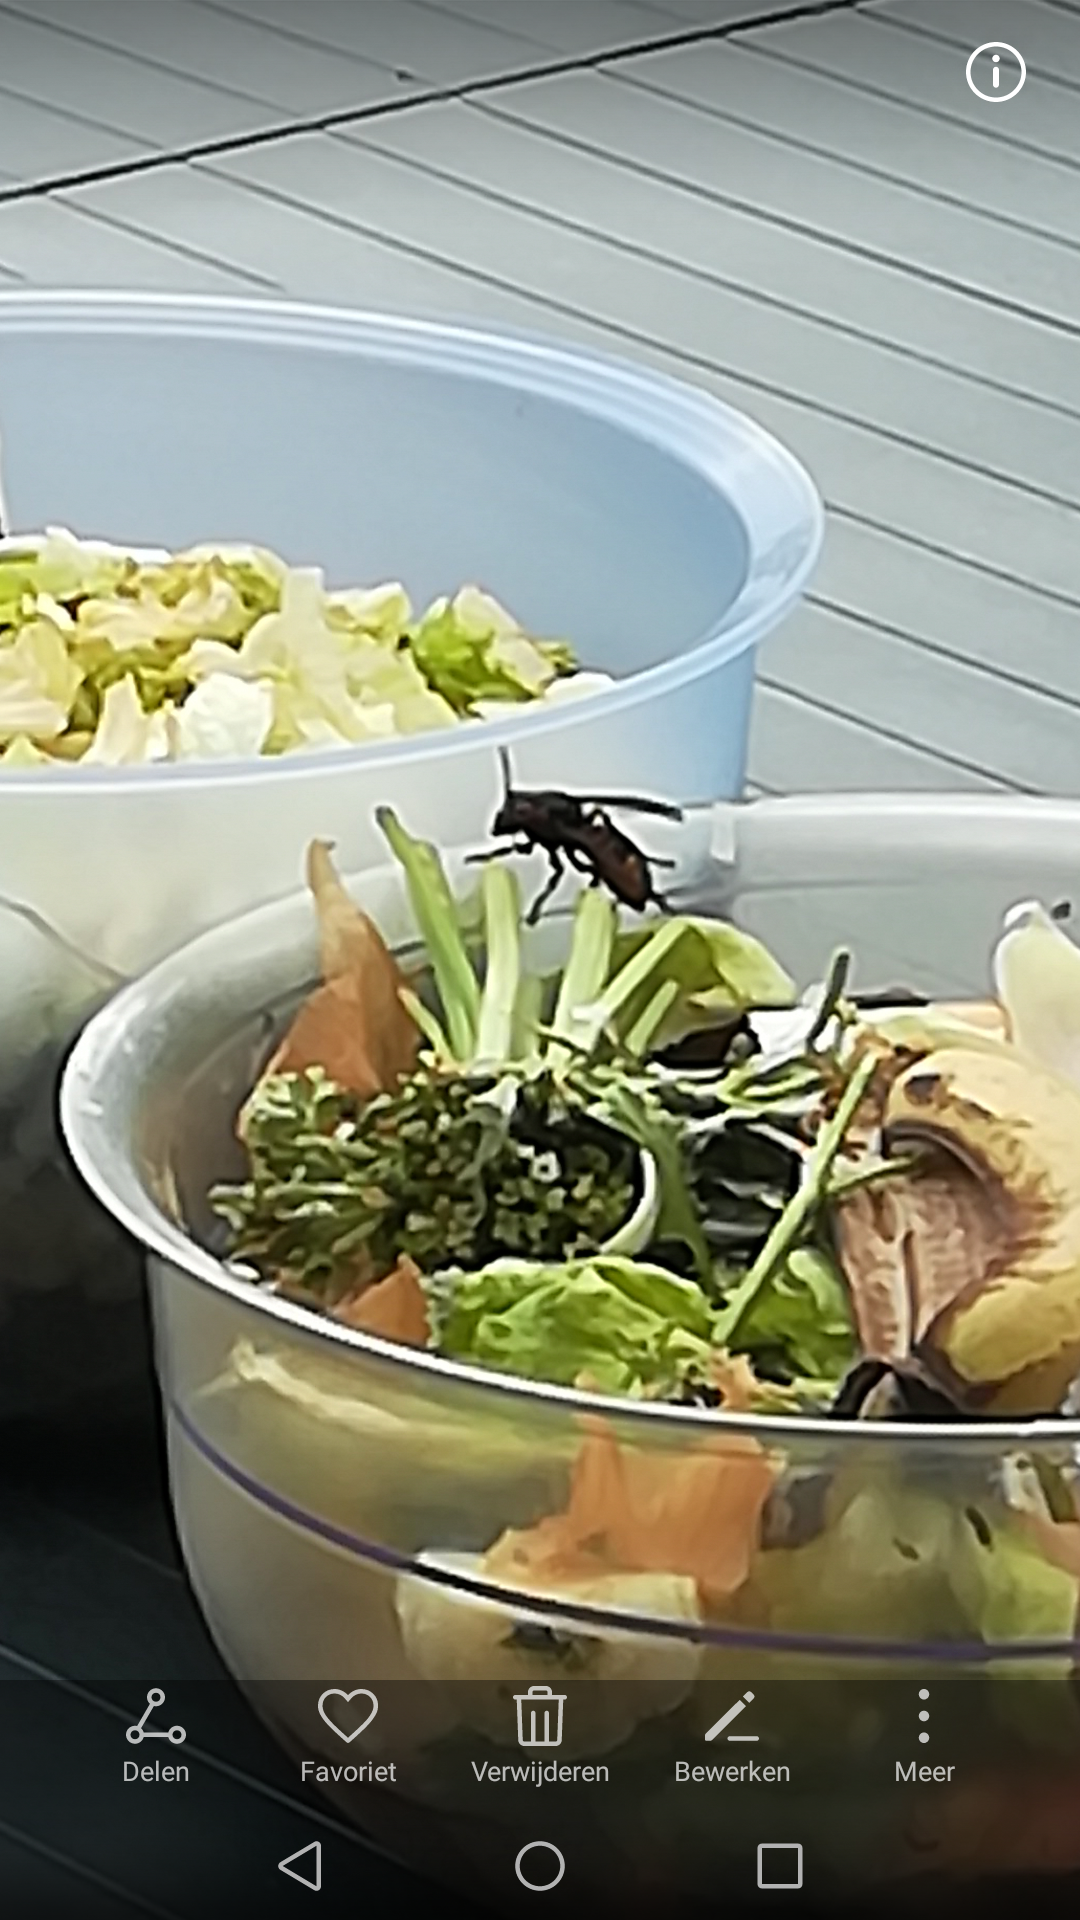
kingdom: Animalia
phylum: Arthropoda
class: Insecta
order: Hymenoptera
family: Vespidae
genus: Vespa
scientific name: Vespa crabro
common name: Hornet
